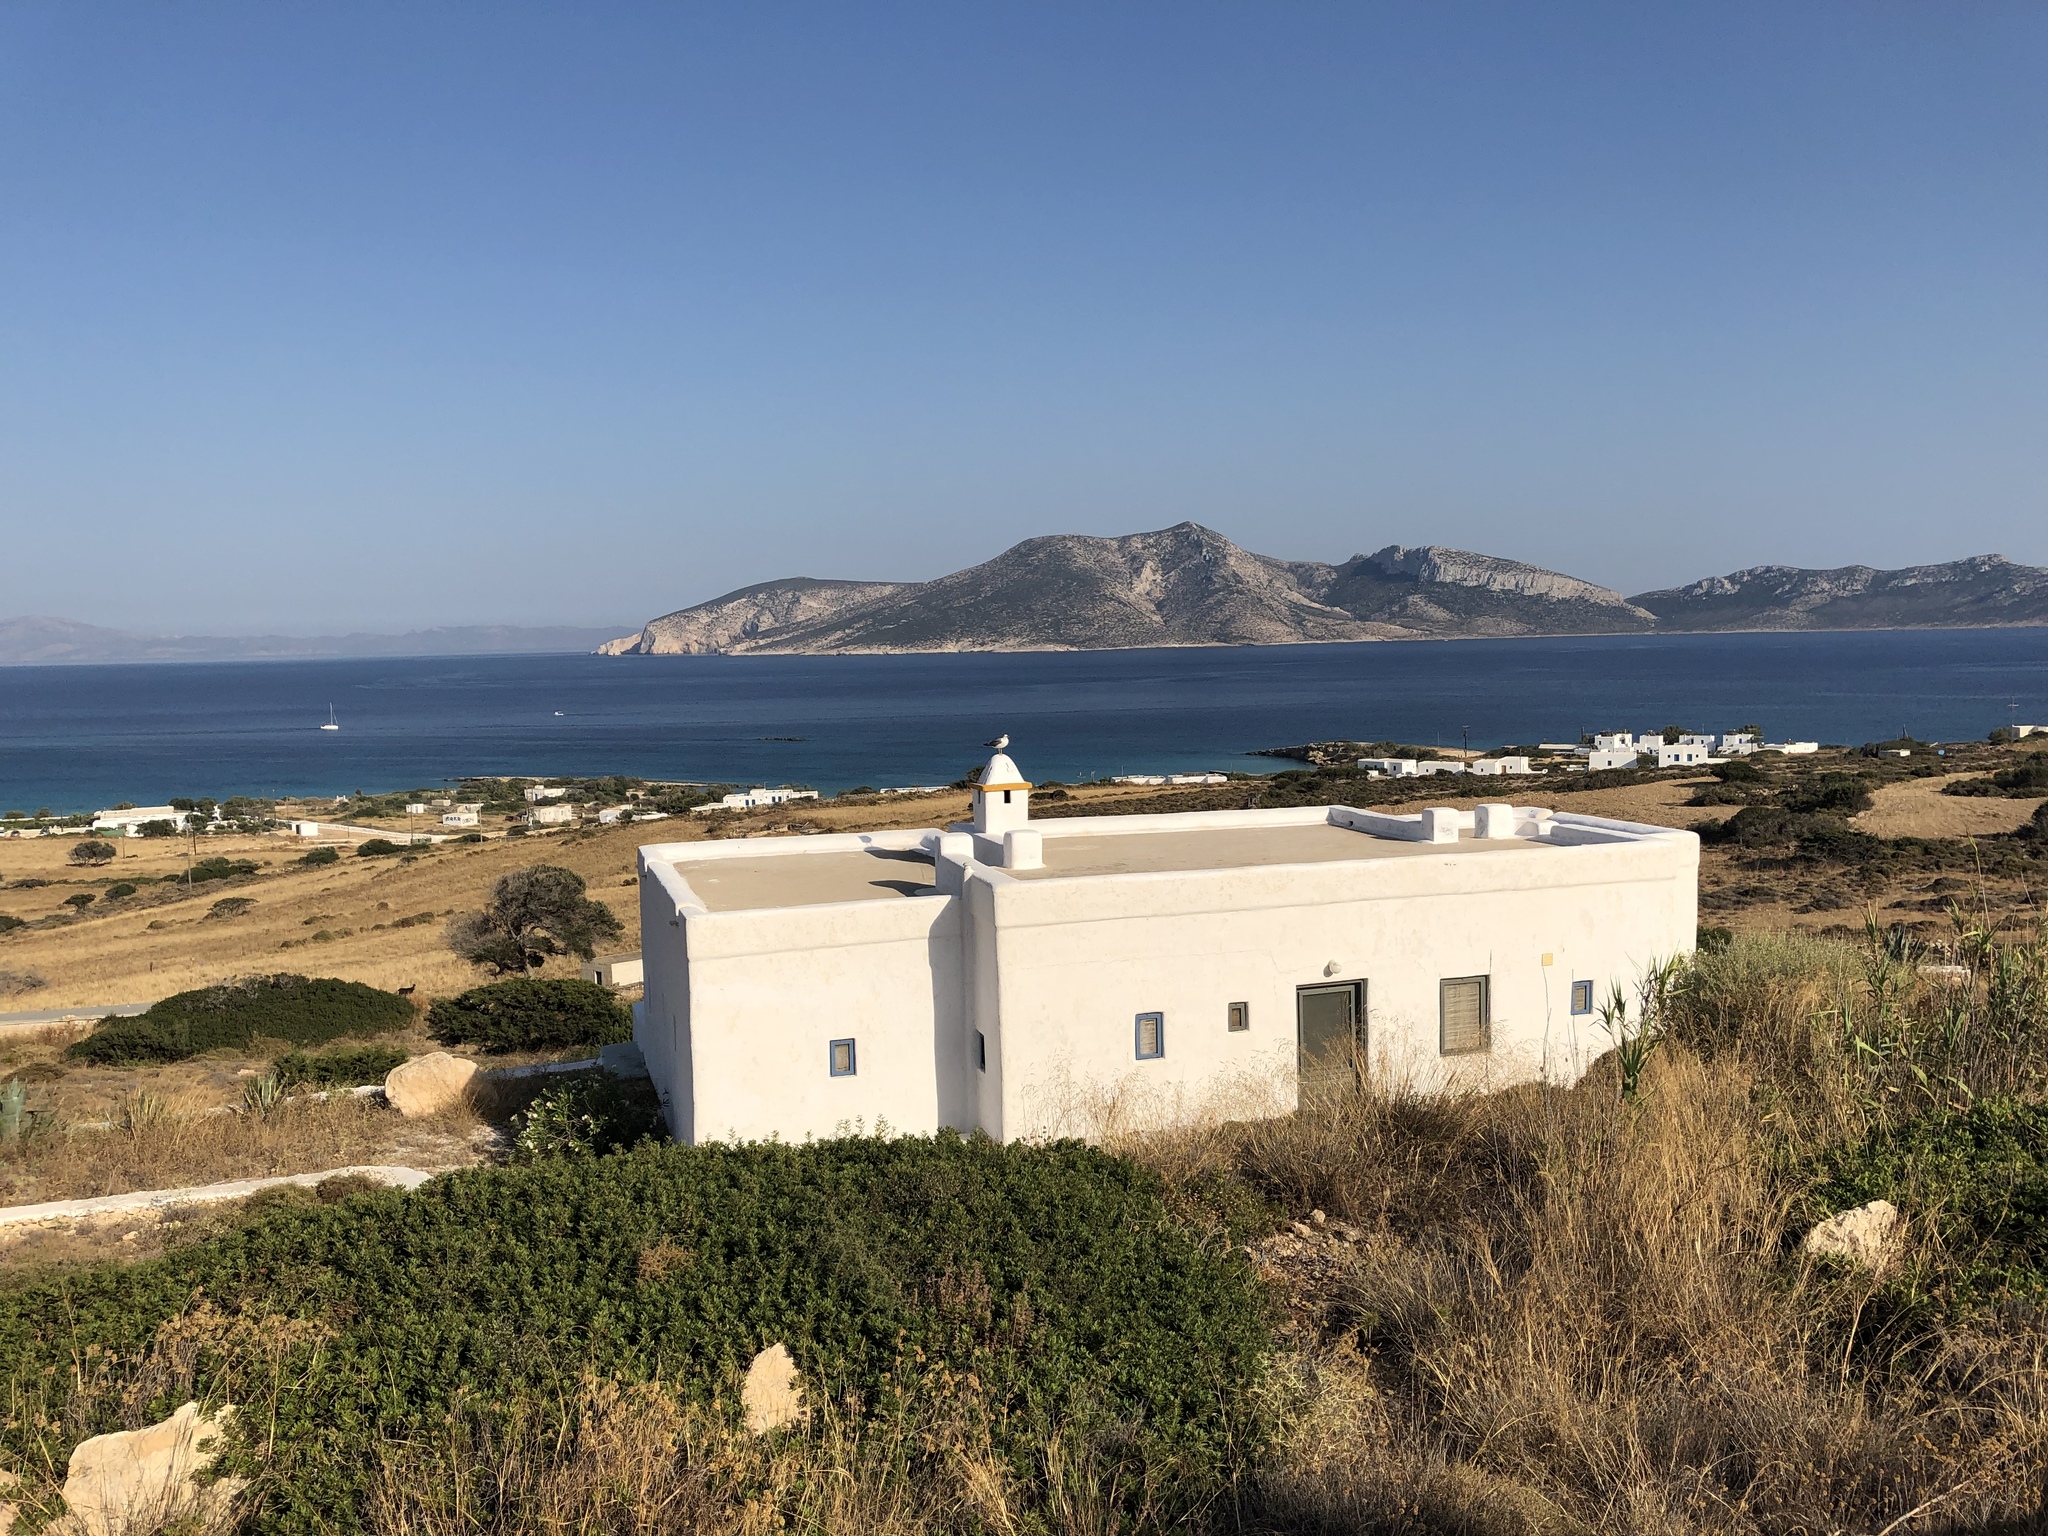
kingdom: Animalia
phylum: Chordata
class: Aves
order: Charadriiformes
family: Laridae
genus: Larus
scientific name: Larus michahellis
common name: Yellow-legged gull
